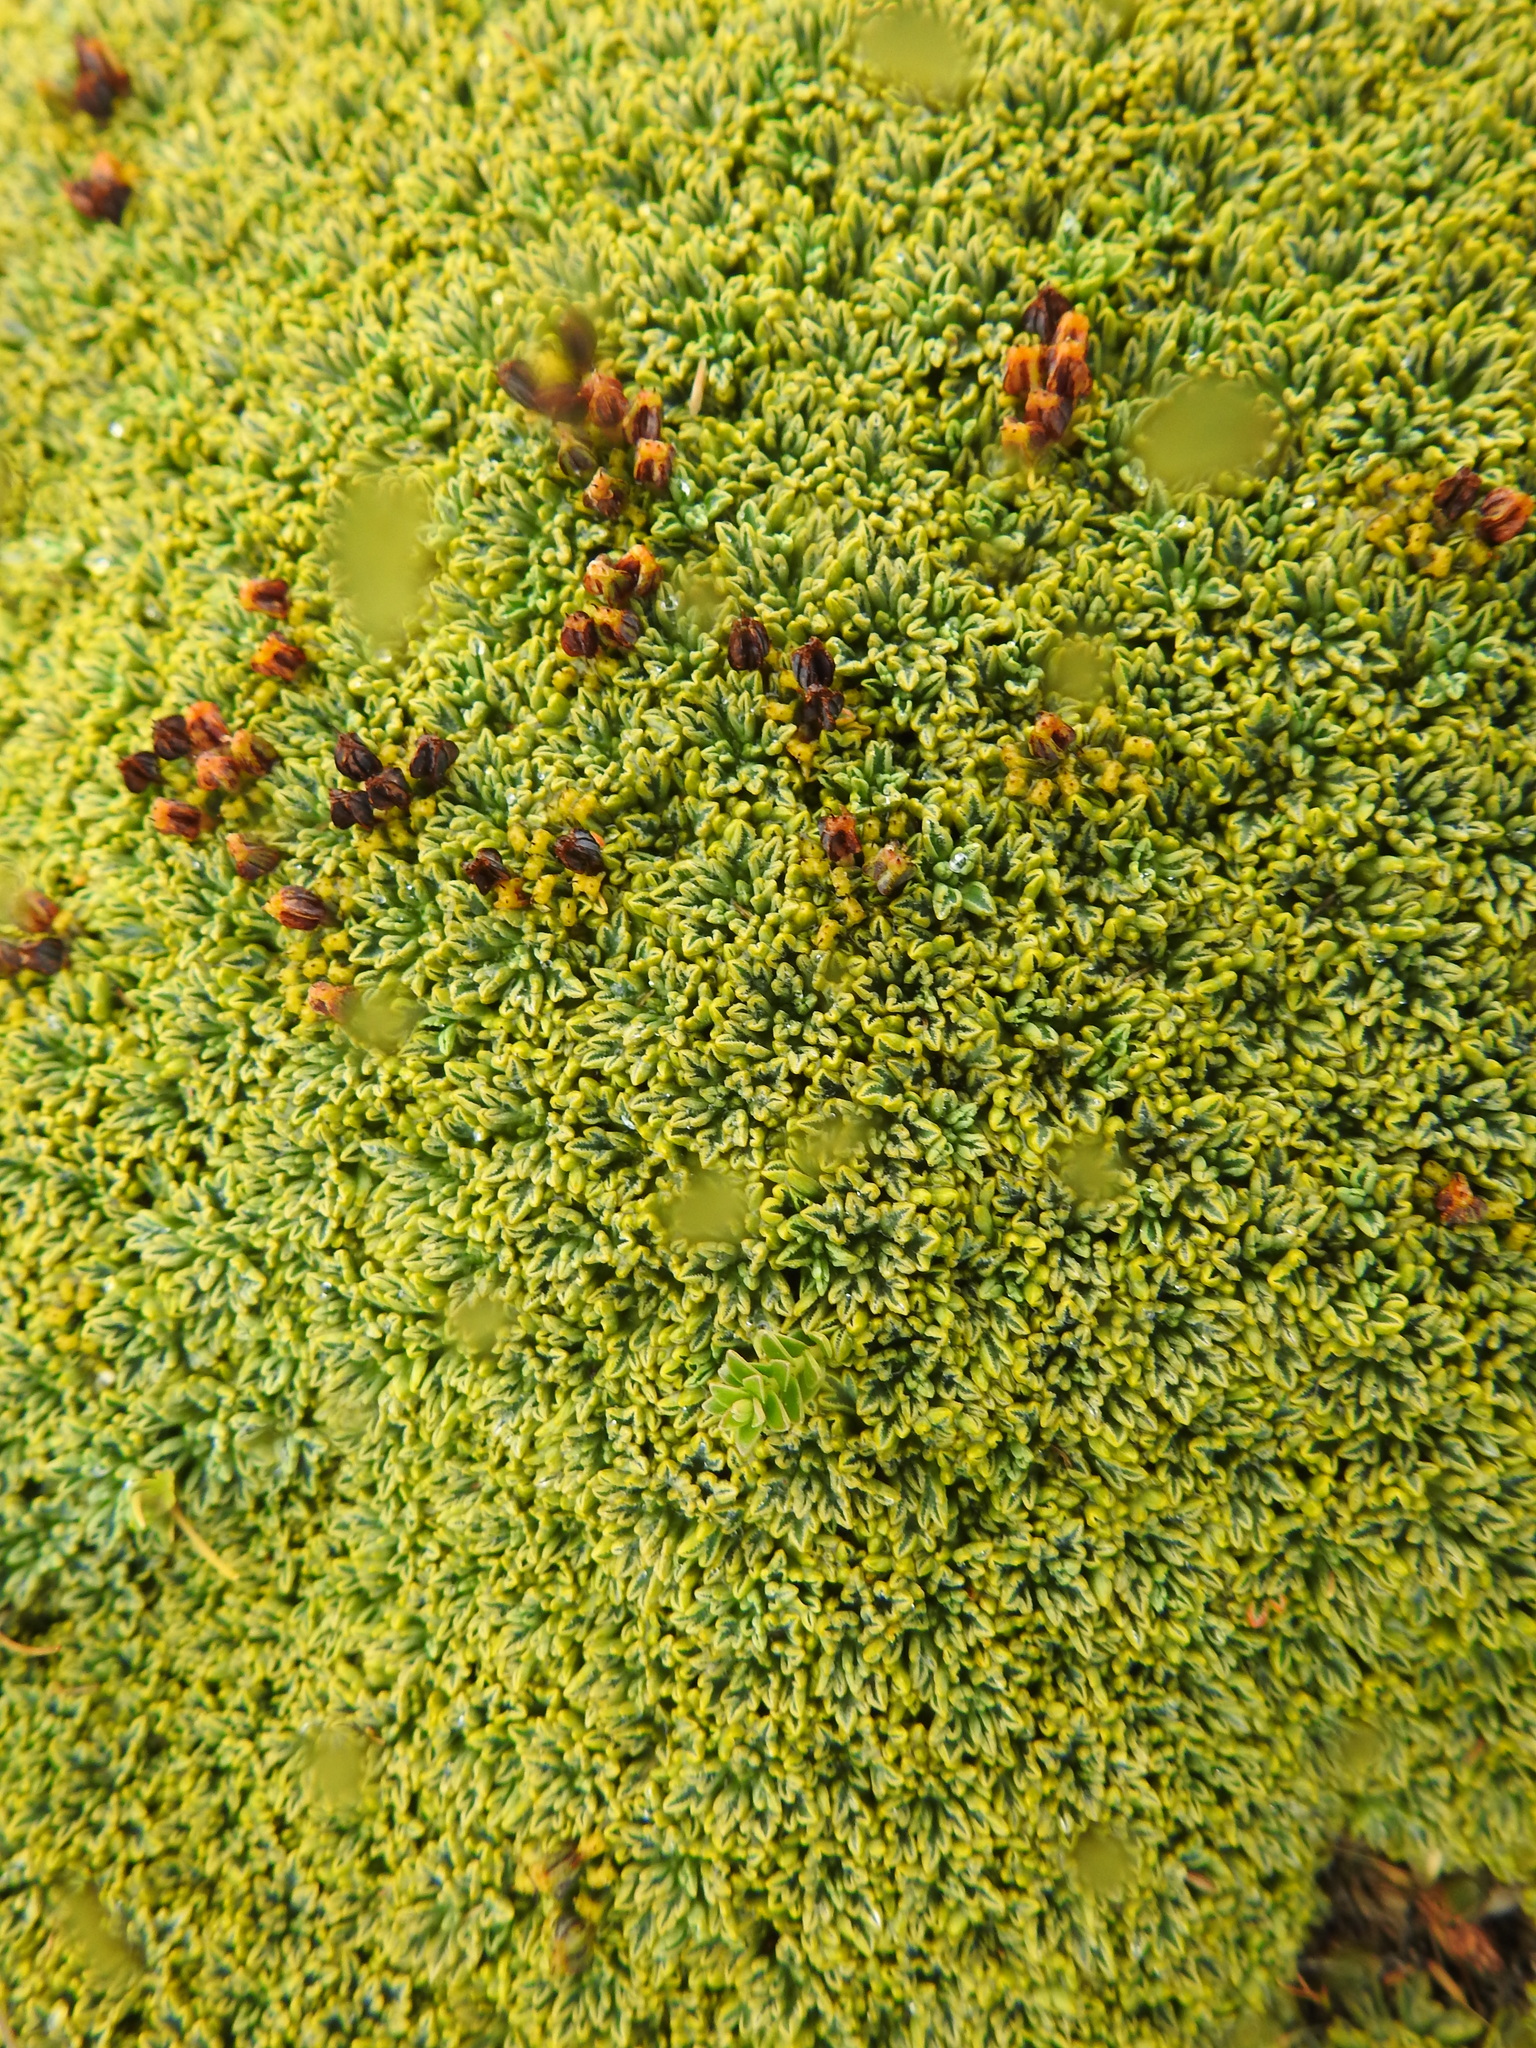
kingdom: Plantae
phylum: Tracheophyta
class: Magnoliopsida
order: Apiales
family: Apiaceae
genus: Bolax
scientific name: Bolax gummifera
